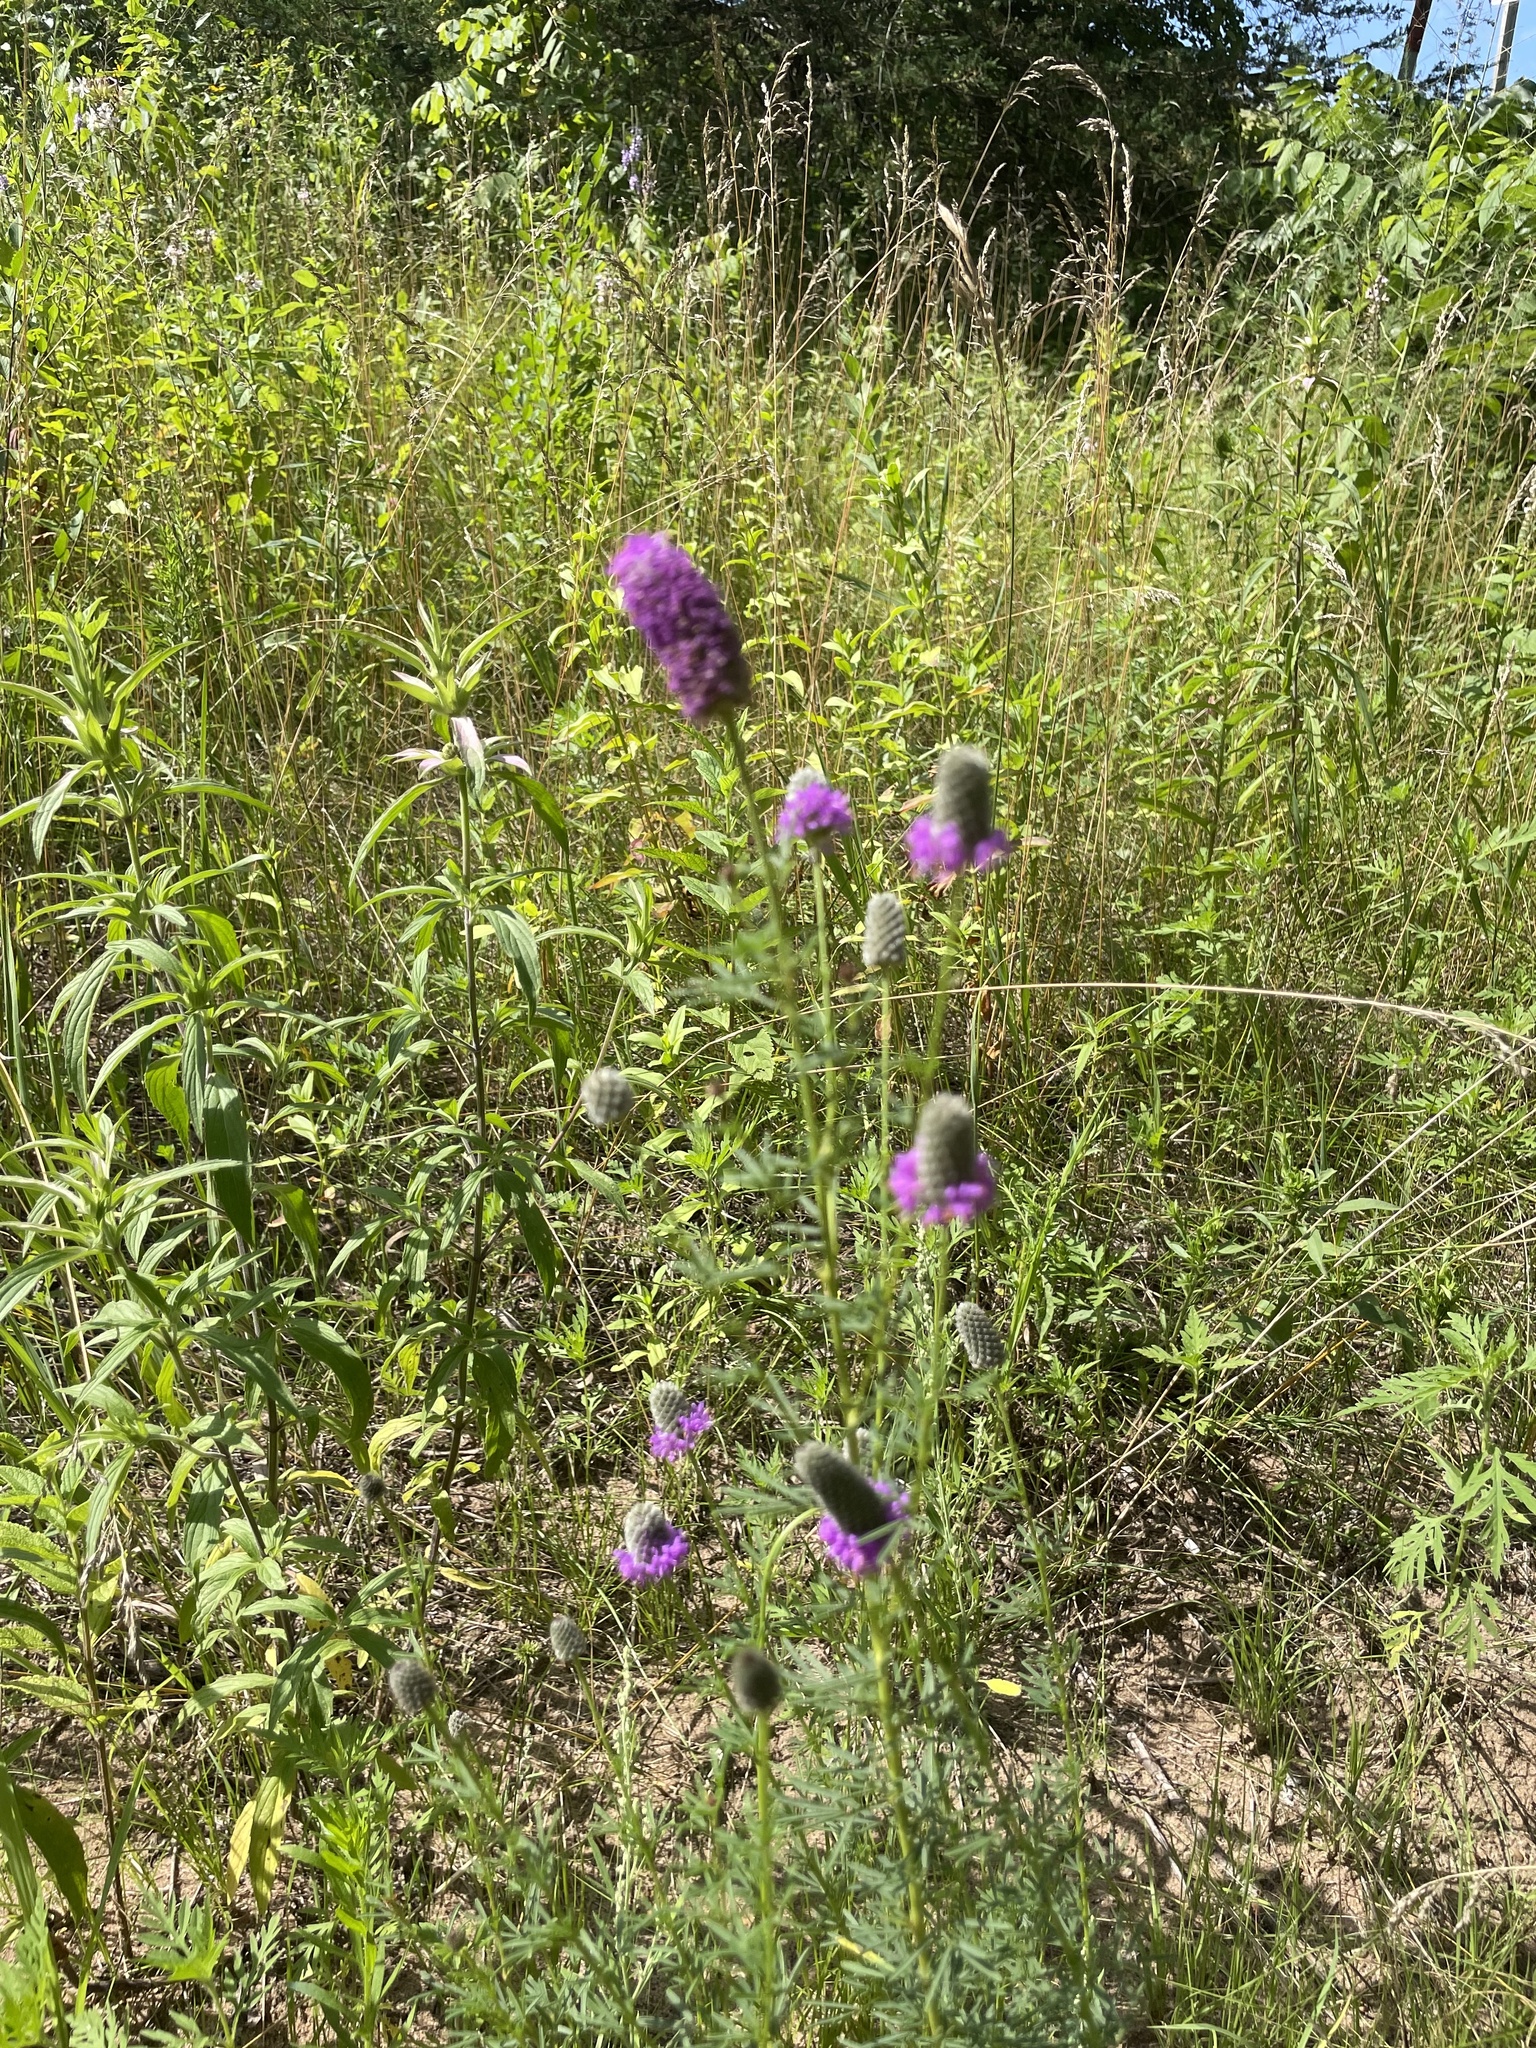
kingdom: Plantae
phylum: Tracheophyta
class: Magnoliopsida
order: Fabales
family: Fabaceae
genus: Dalea
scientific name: Dalea purpurea
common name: Purple prairie-clover
